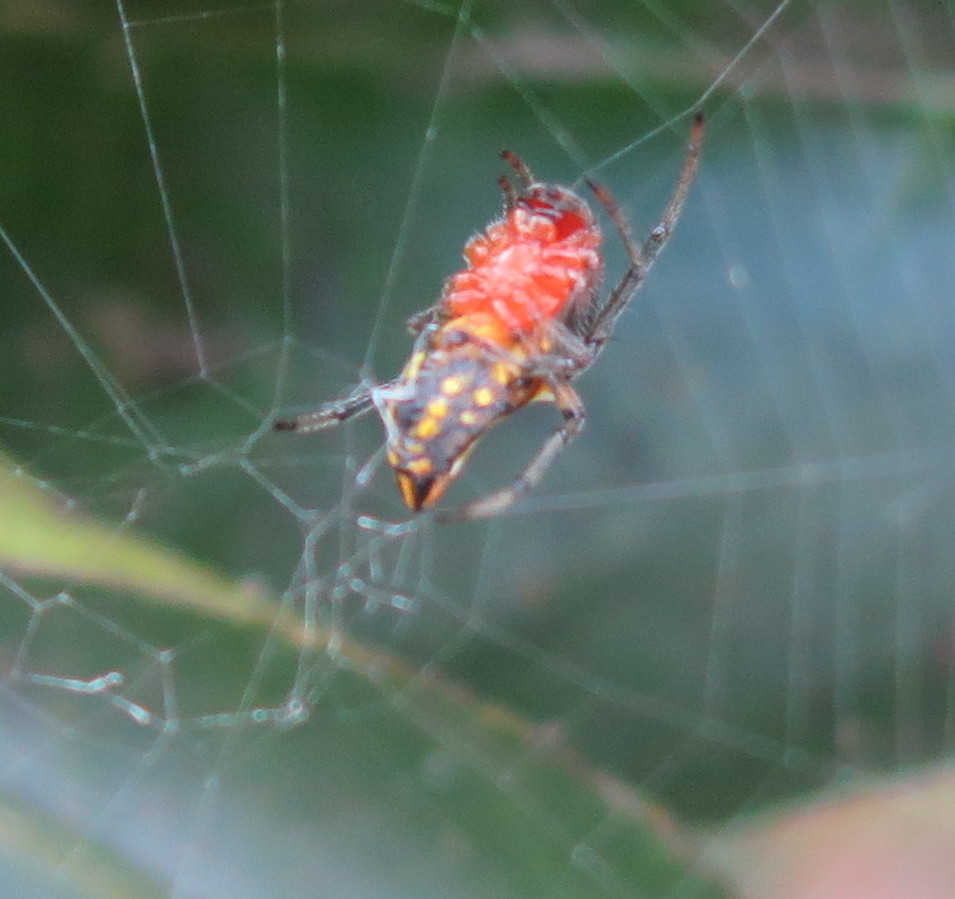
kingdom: Animalia
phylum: Arthropoda
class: Arachnida
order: Araneae
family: Araneidae
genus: Alpaida
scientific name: Alpaida bicornuta
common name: Orb weavers
